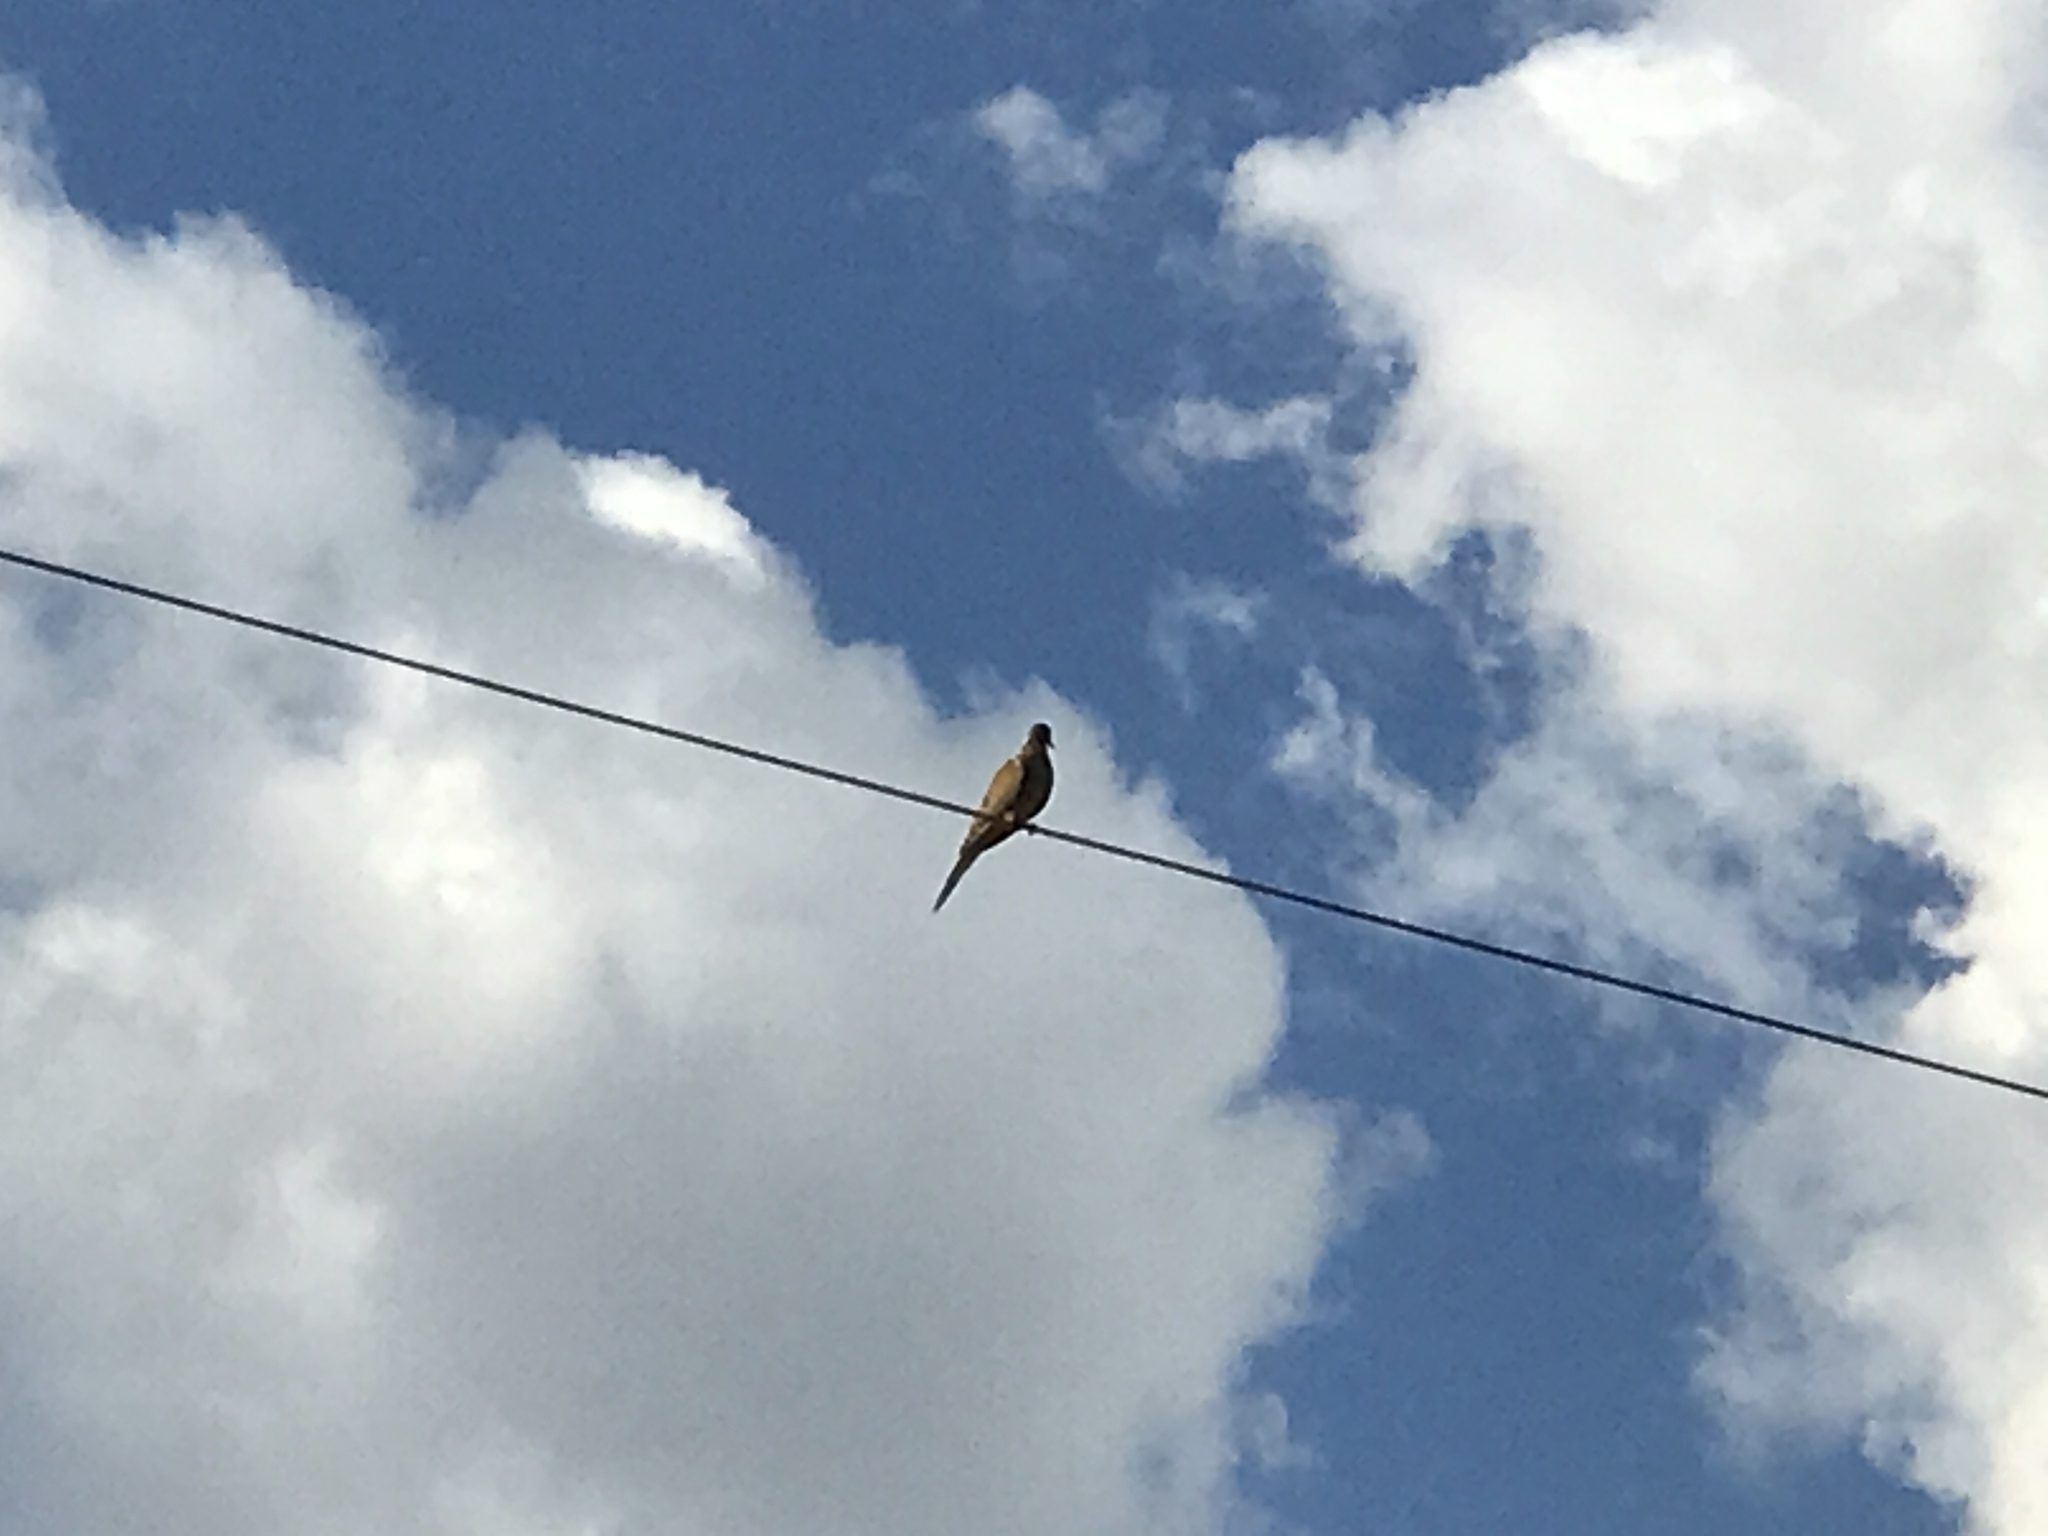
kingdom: Animalia
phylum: Chordata
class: Aves
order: Columbiformes
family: Columbidae
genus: Zenaida
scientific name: Zenaida macroura
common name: Mourning dove
